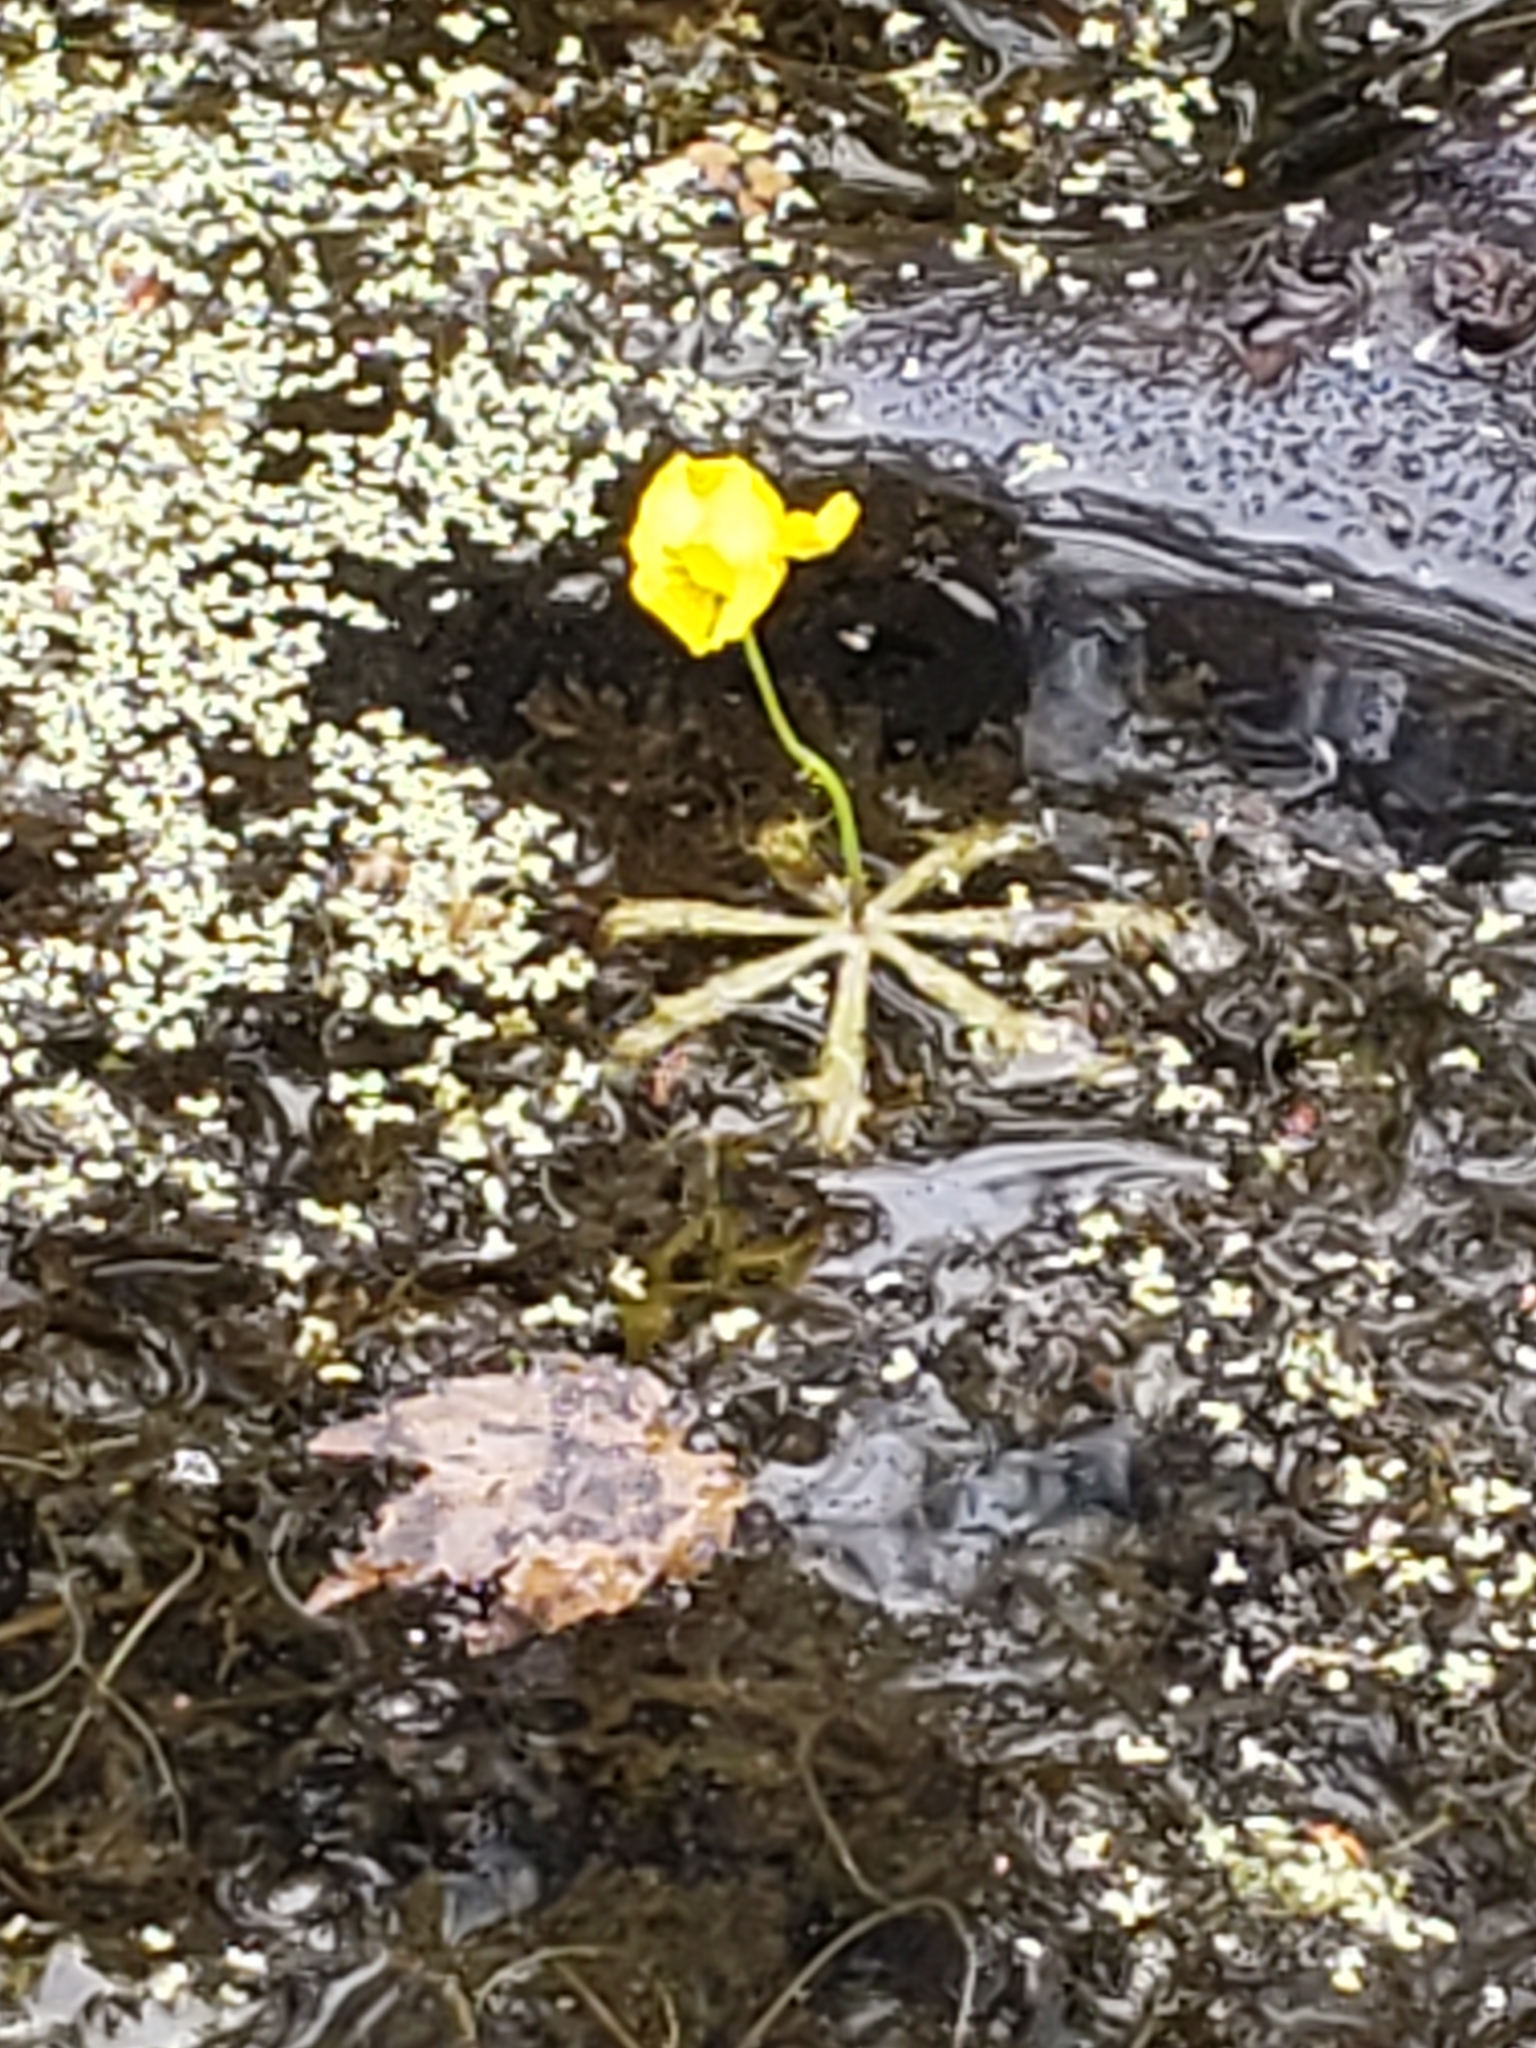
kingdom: Plantae
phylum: Tracheophyta
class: Magnoliopsida
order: Lamiales
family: Lentibulariaceae
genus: Utricularia
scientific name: Utricularia inflata
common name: Floating bladderwort
